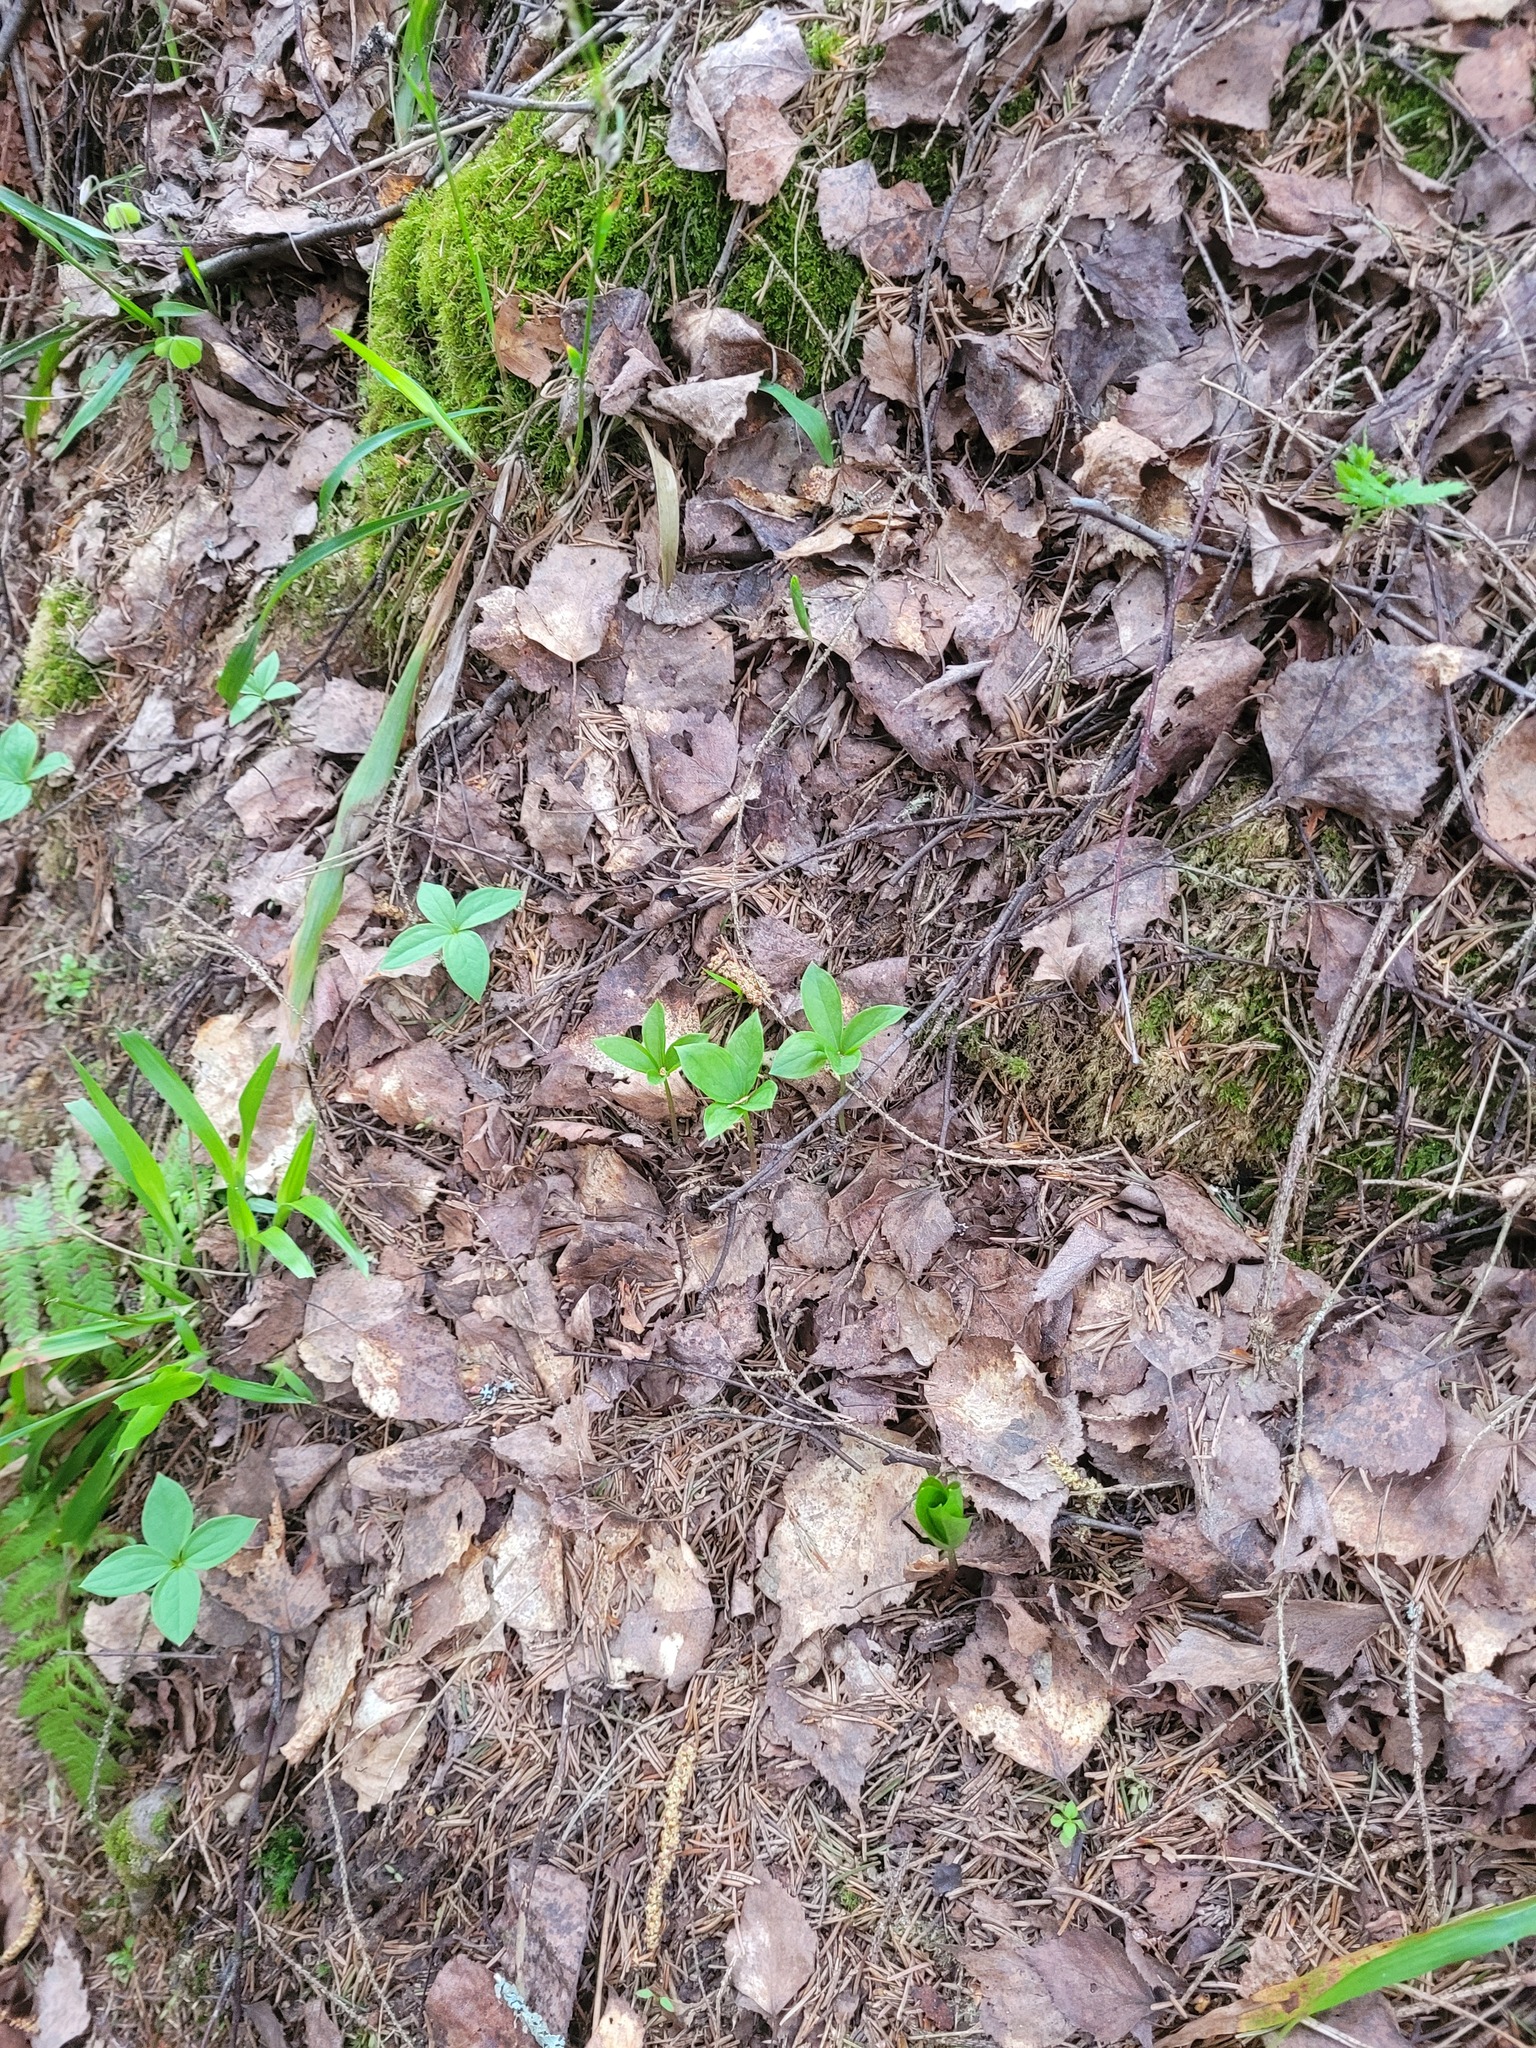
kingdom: Plantae
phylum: Tracheophyta
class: Liliopsida
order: Liliales
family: Melanthiaceae
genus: Paris
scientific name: Paris quadrifolia
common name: Herb-paris
